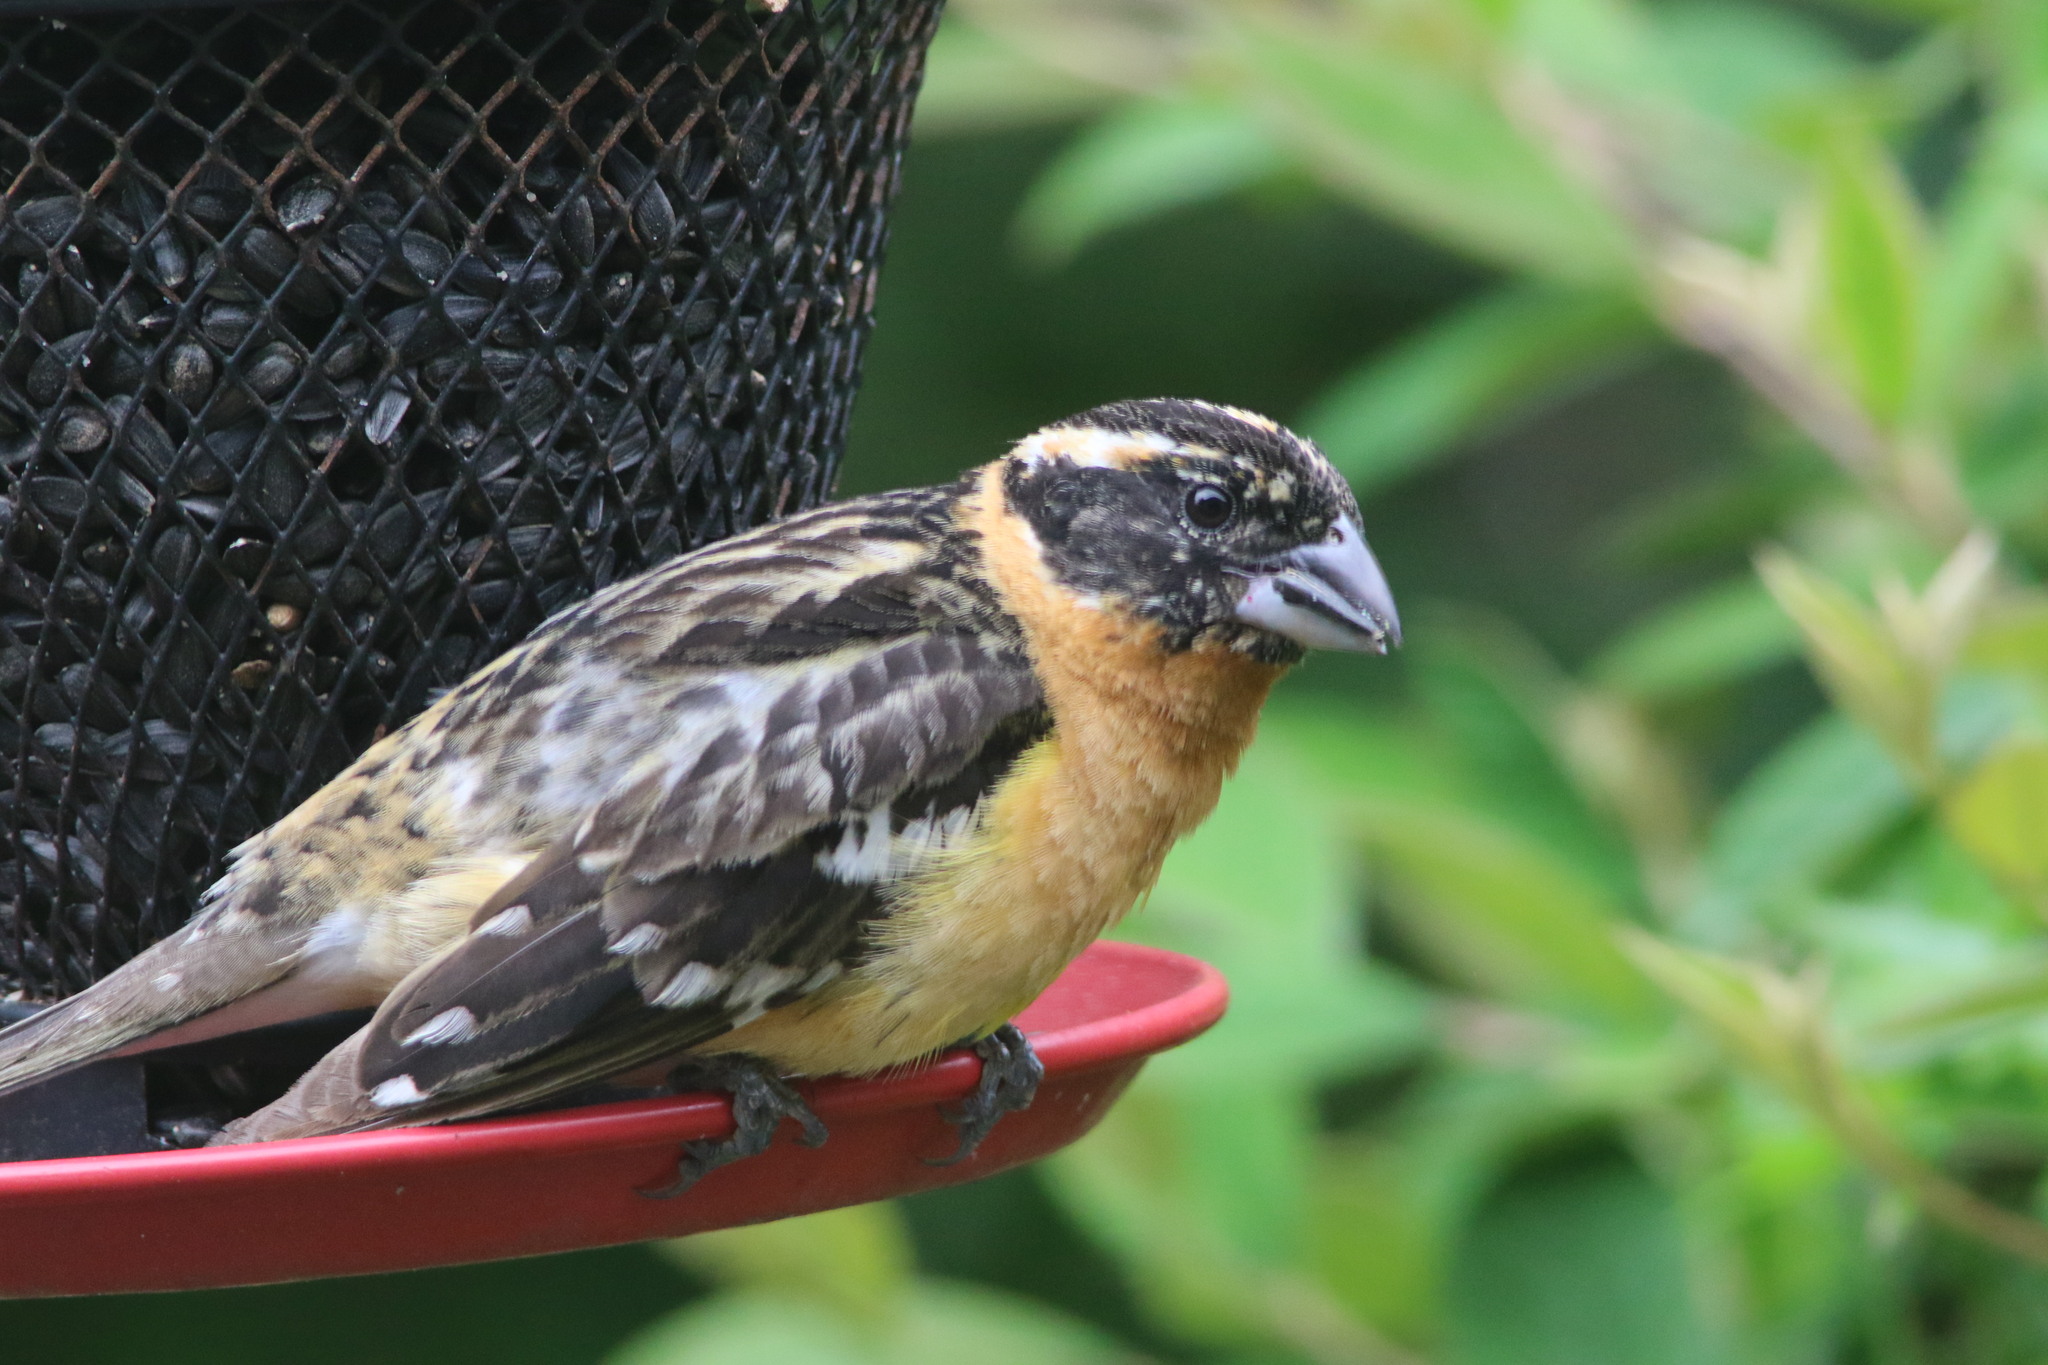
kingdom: Animalia
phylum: Chordata
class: Aves
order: Passeriformes
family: Cardinalidae
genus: Pheucticus
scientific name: Pheucticus melanocephalus
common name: Black-headed grosbeak
